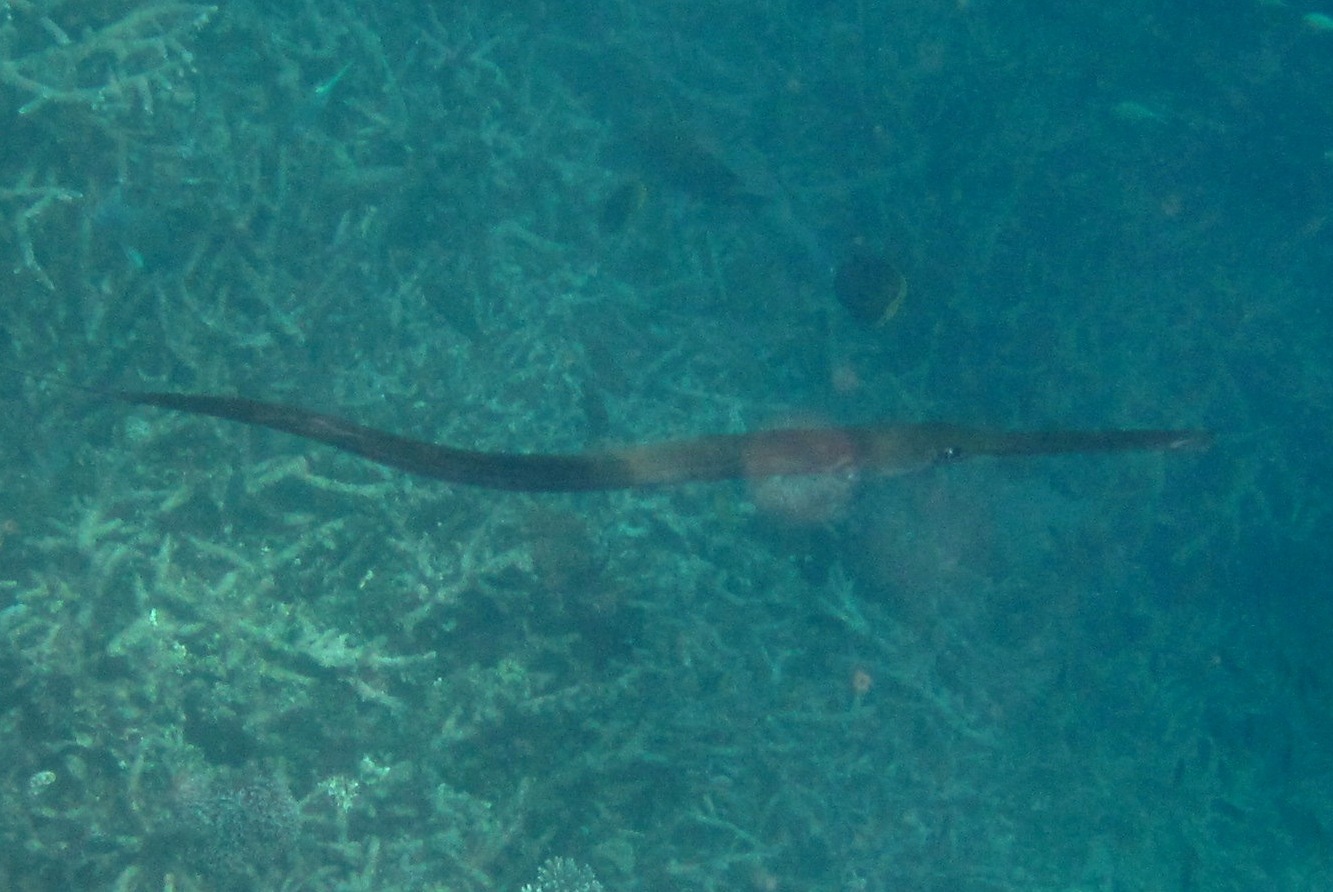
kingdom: Animalia
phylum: Chordata
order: Syngnathiformes
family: Fistulariidae
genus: Fistularia
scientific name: Fistularia commersonii
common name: Bluespotted cornetfish
